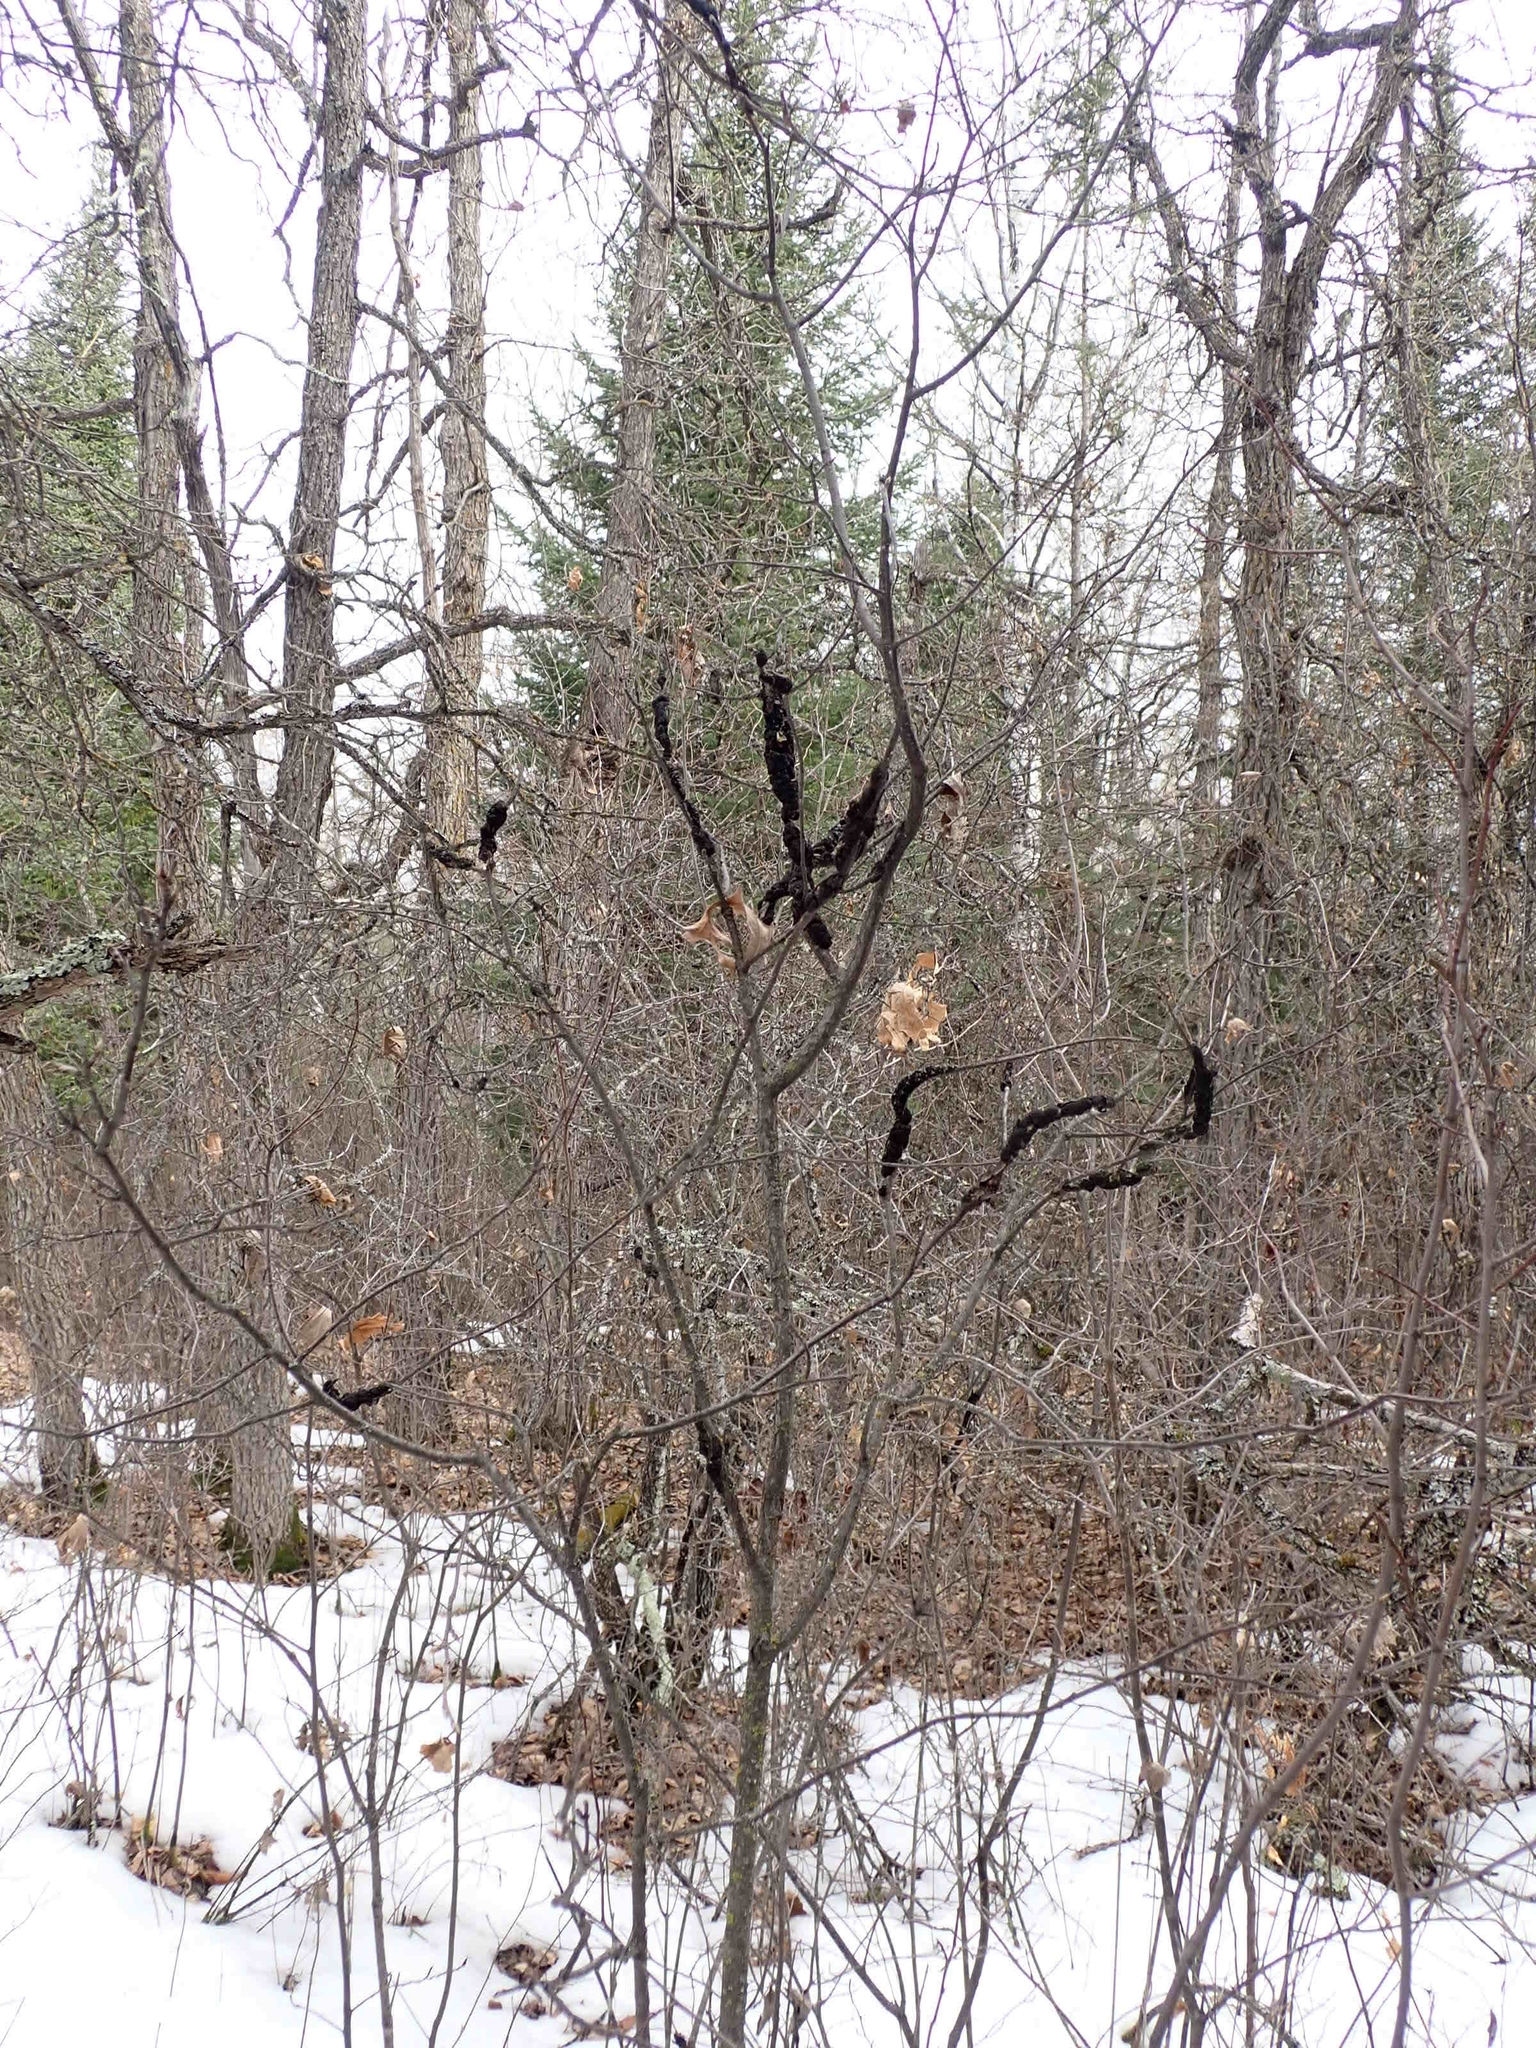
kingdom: Fungi
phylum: Ascomycota
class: Dothideomycetes
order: Venturiales
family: Venturiaceae
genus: Apiosporina
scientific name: Apiosporina morbosa
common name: Black knot
